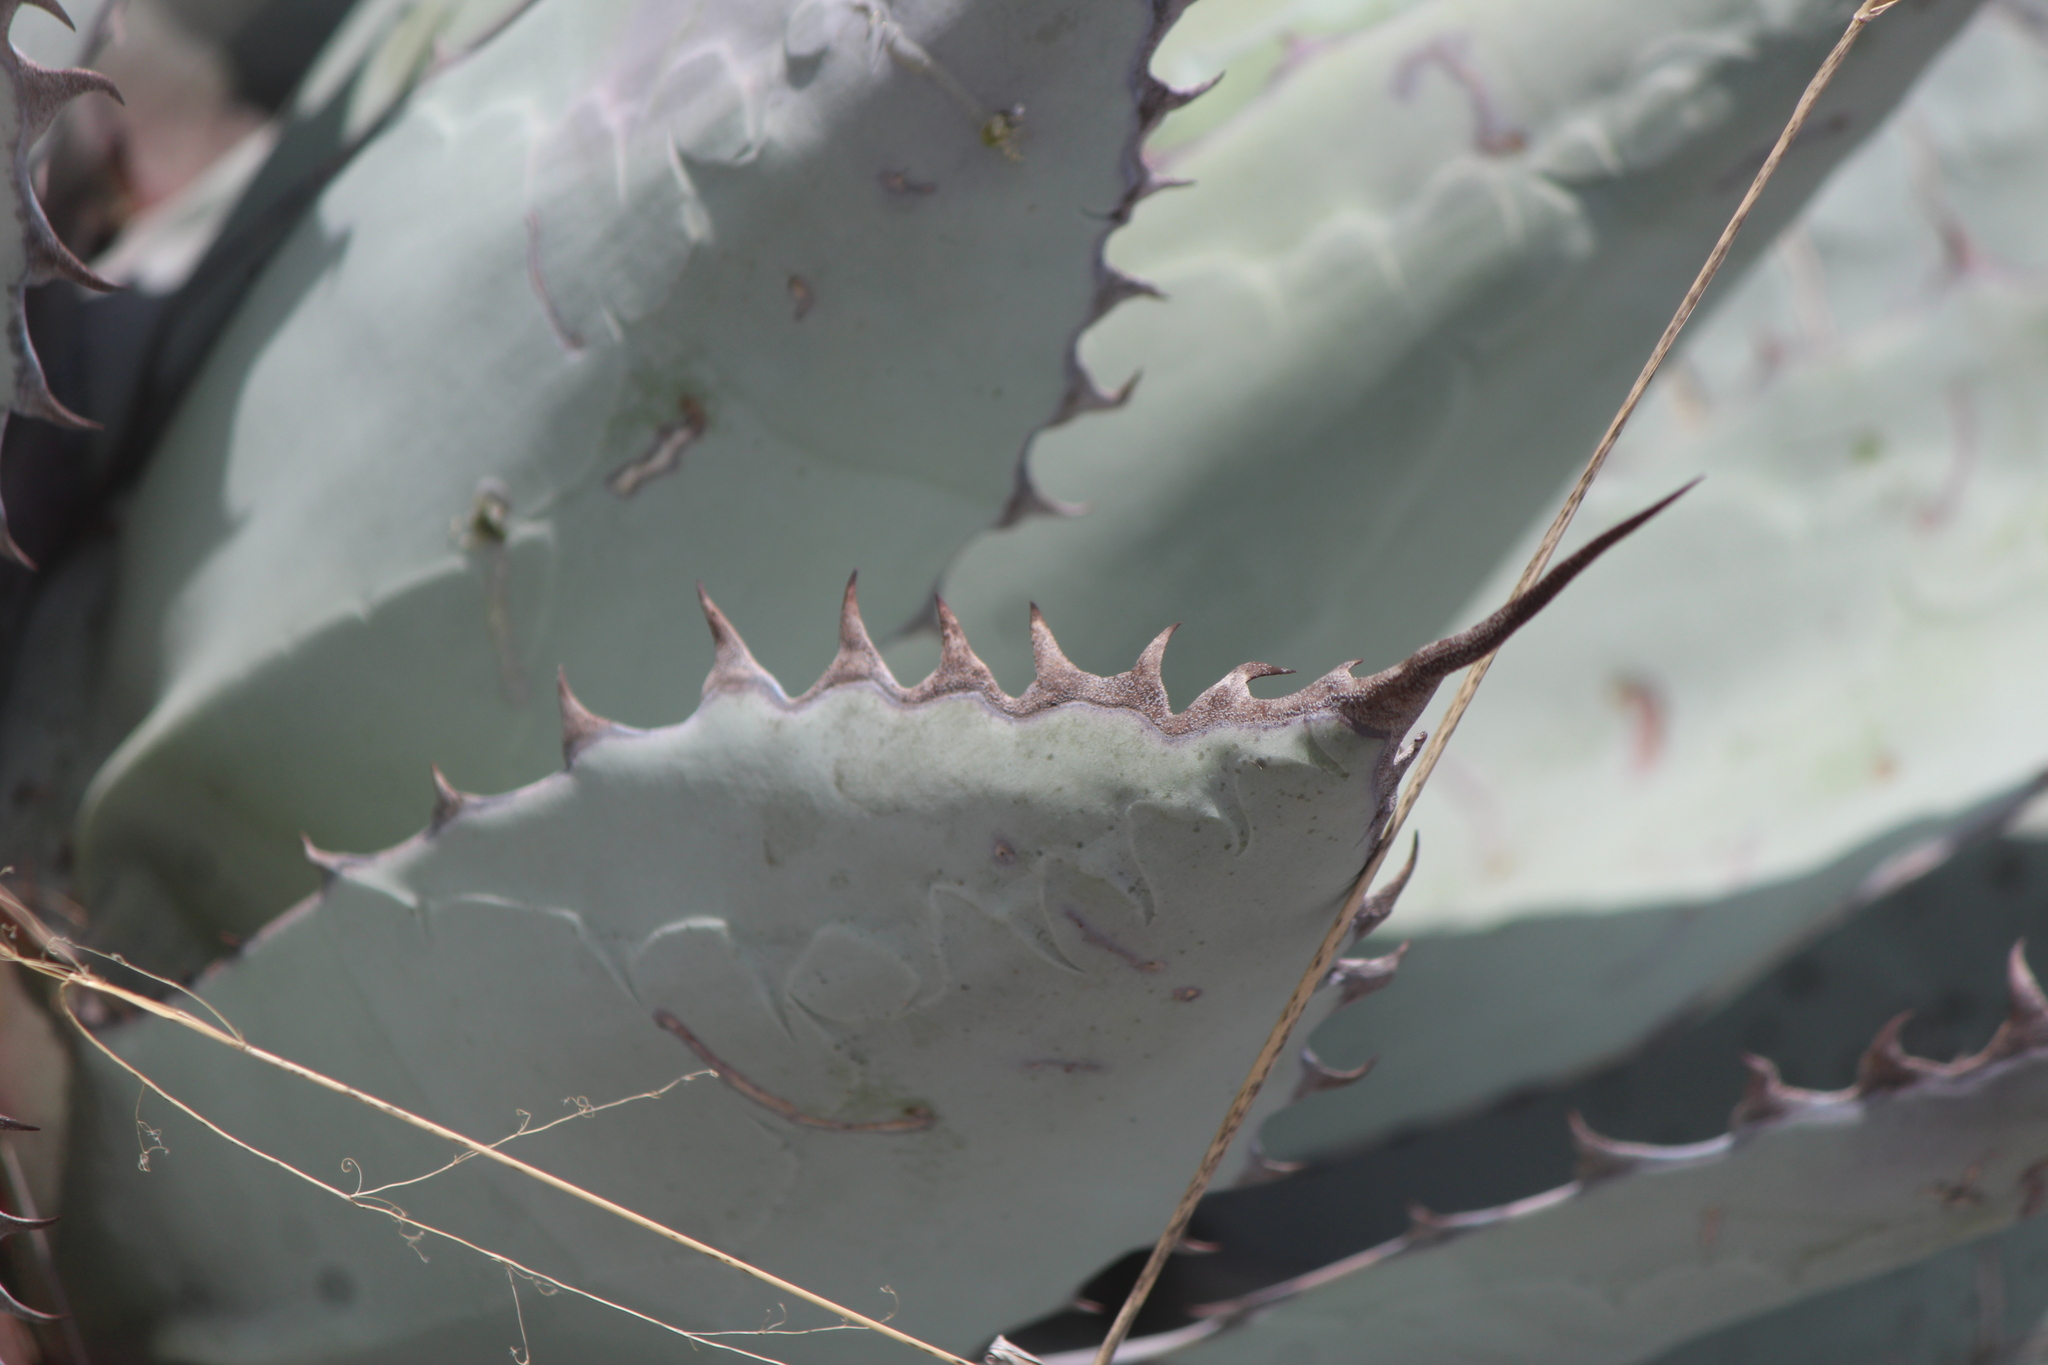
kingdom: Plantae
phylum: Tracheophyta
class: Liliopsida
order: Asparagales
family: Asparagaceae
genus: Agave
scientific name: Agave flexispina
